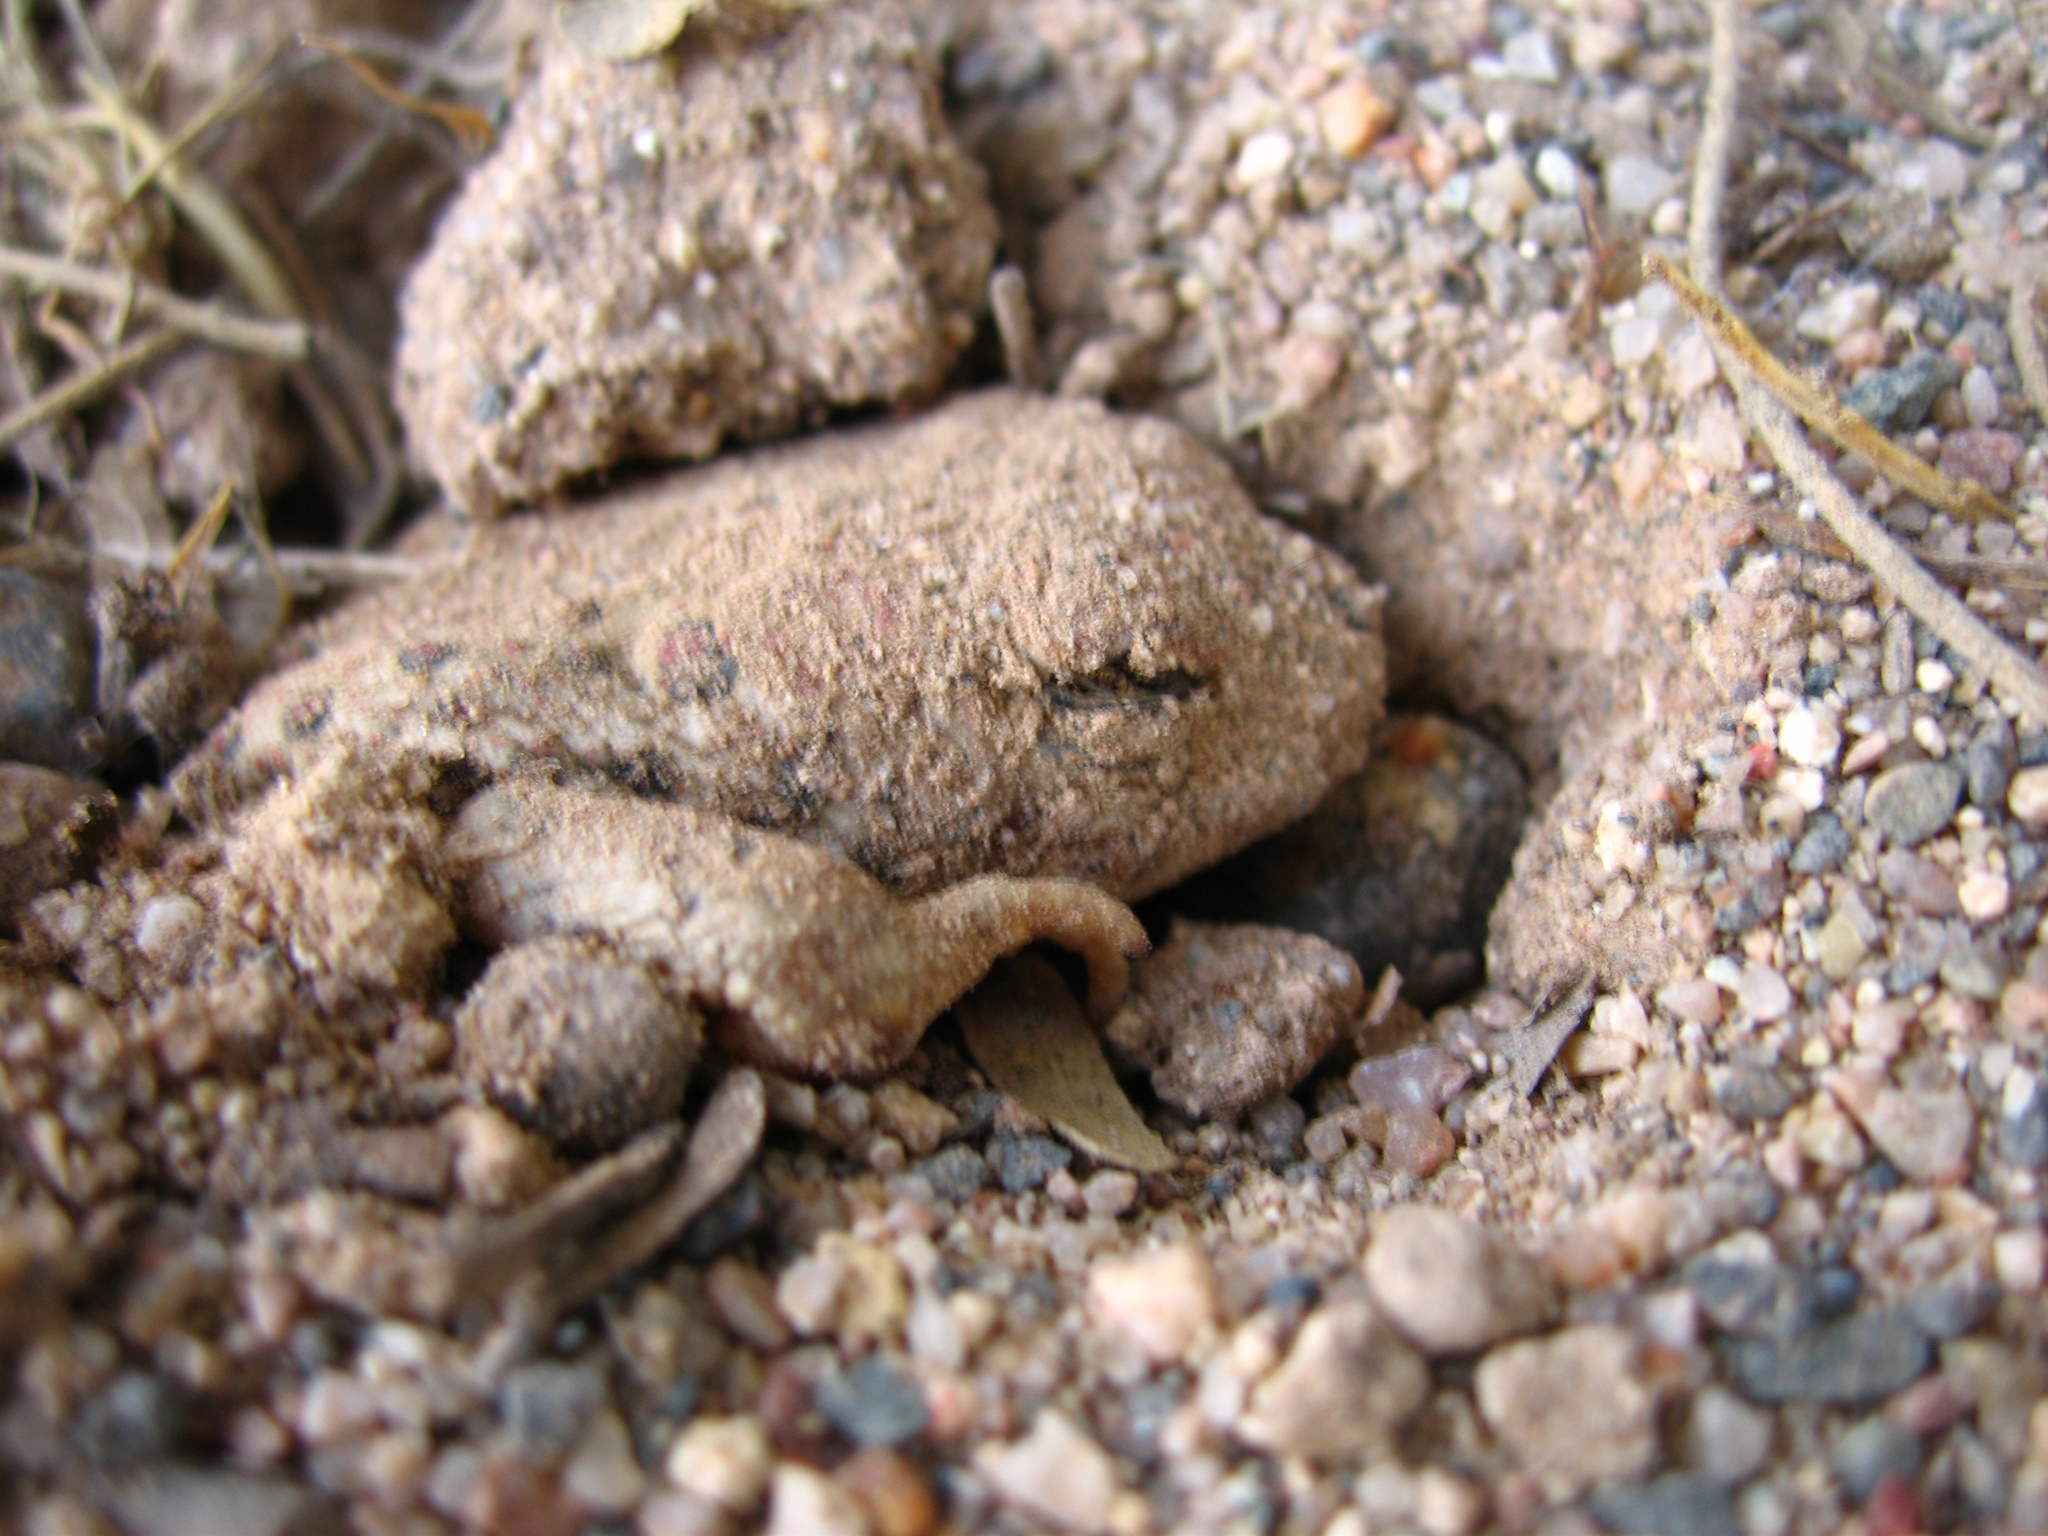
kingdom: Animalia
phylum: Chordata
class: Amphibia
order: Anura
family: Bufonidae
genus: Anaxyrus
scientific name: Anaxyrus woodhousii
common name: Woodhouse's toad
